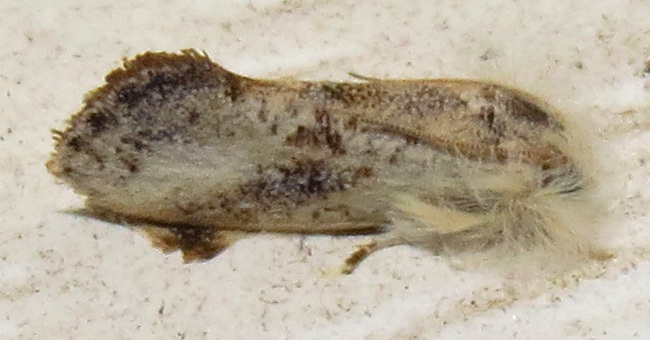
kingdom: Animalia
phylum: Arthropoda
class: Insecta
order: Lepidoptera
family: Tineidae
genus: Acrolophus
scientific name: Acrolophus mycetophagus
